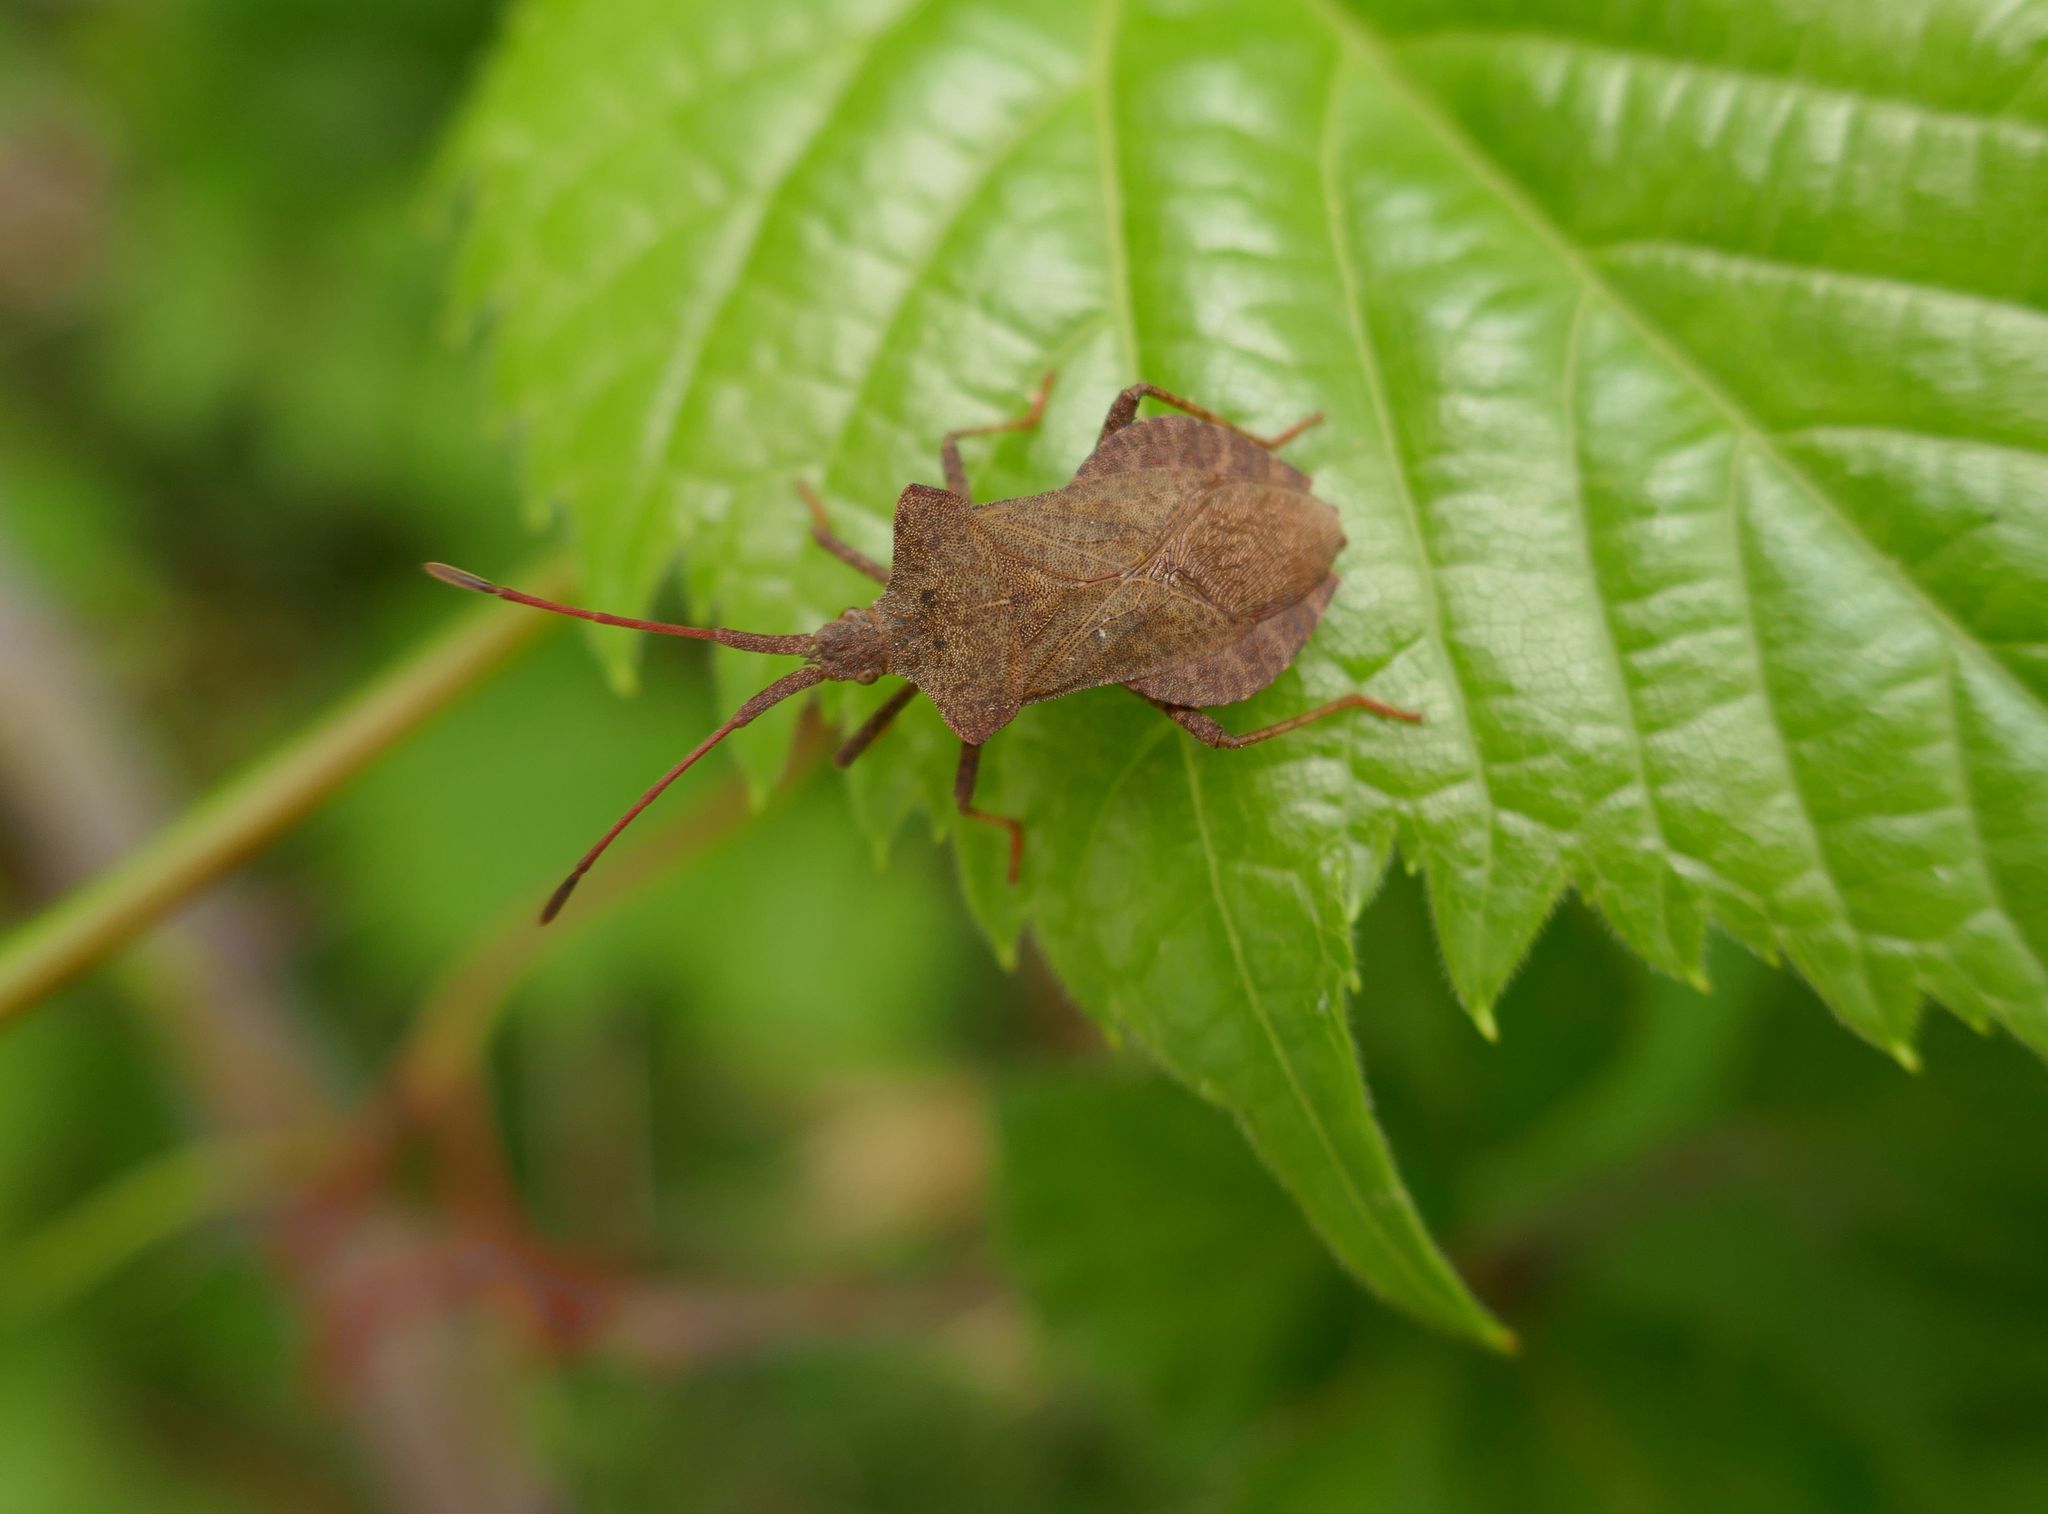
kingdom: Animalia
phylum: Arthropoda
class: Insecta
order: Hemiptera
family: Coreidae
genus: Coreus
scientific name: Coreus marginatus
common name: Dock bug
